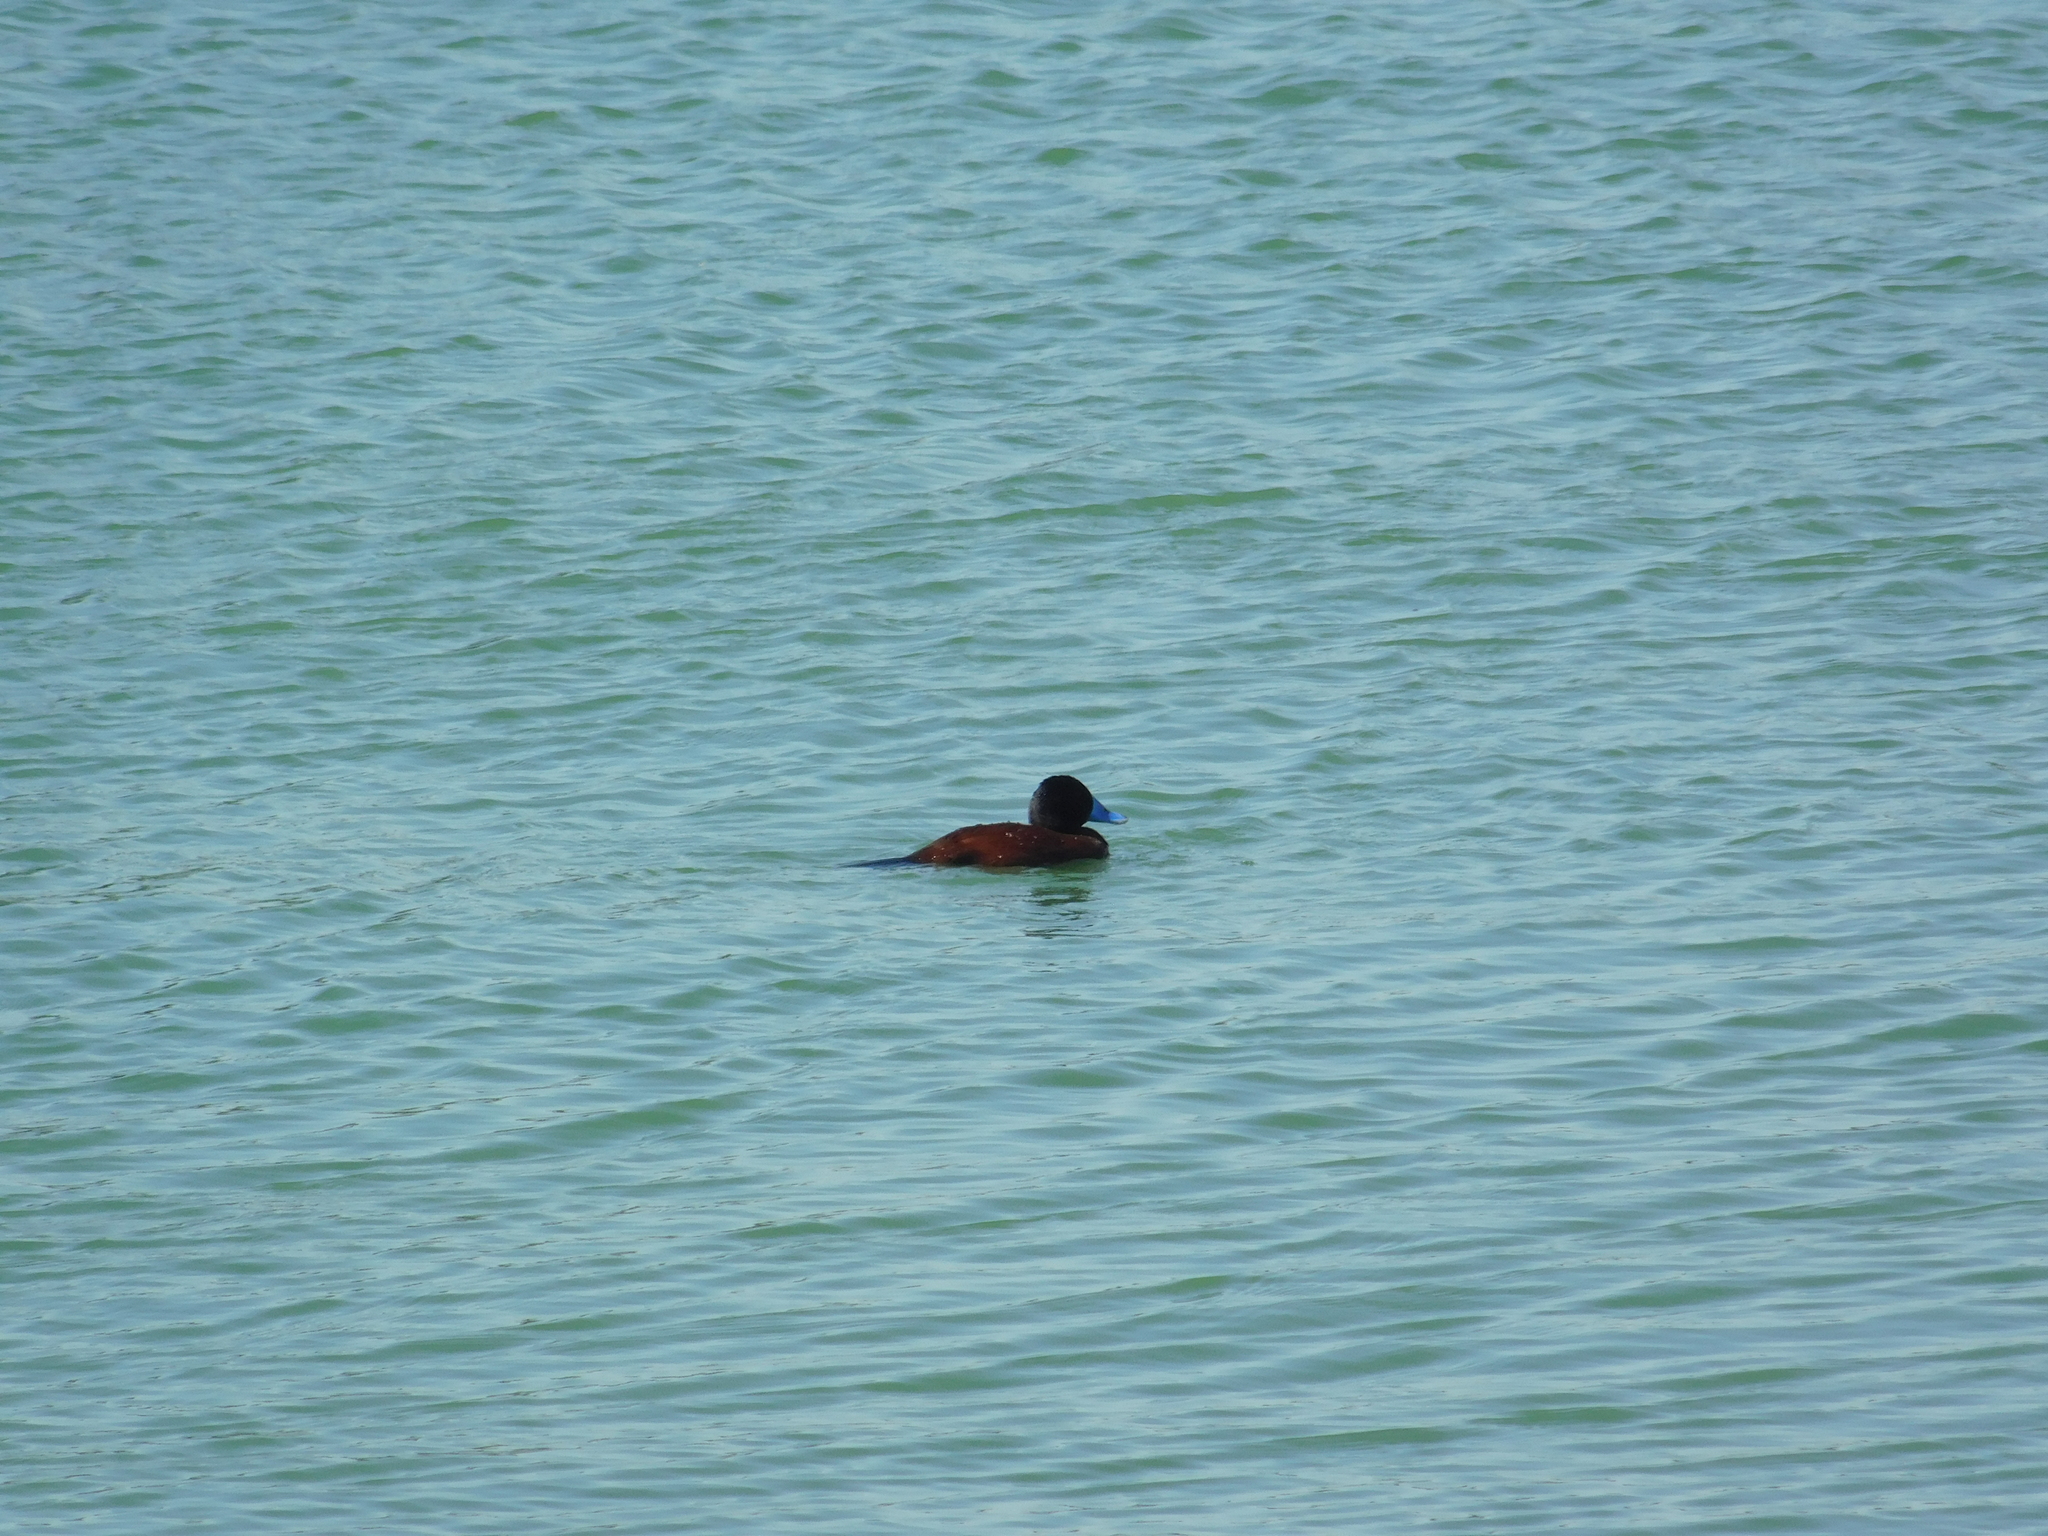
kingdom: Animalia
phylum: Chordata
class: Aves
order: Anseriformes
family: Anatidae
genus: Oxyura
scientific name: Oxyura vittata
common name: Lake duck
